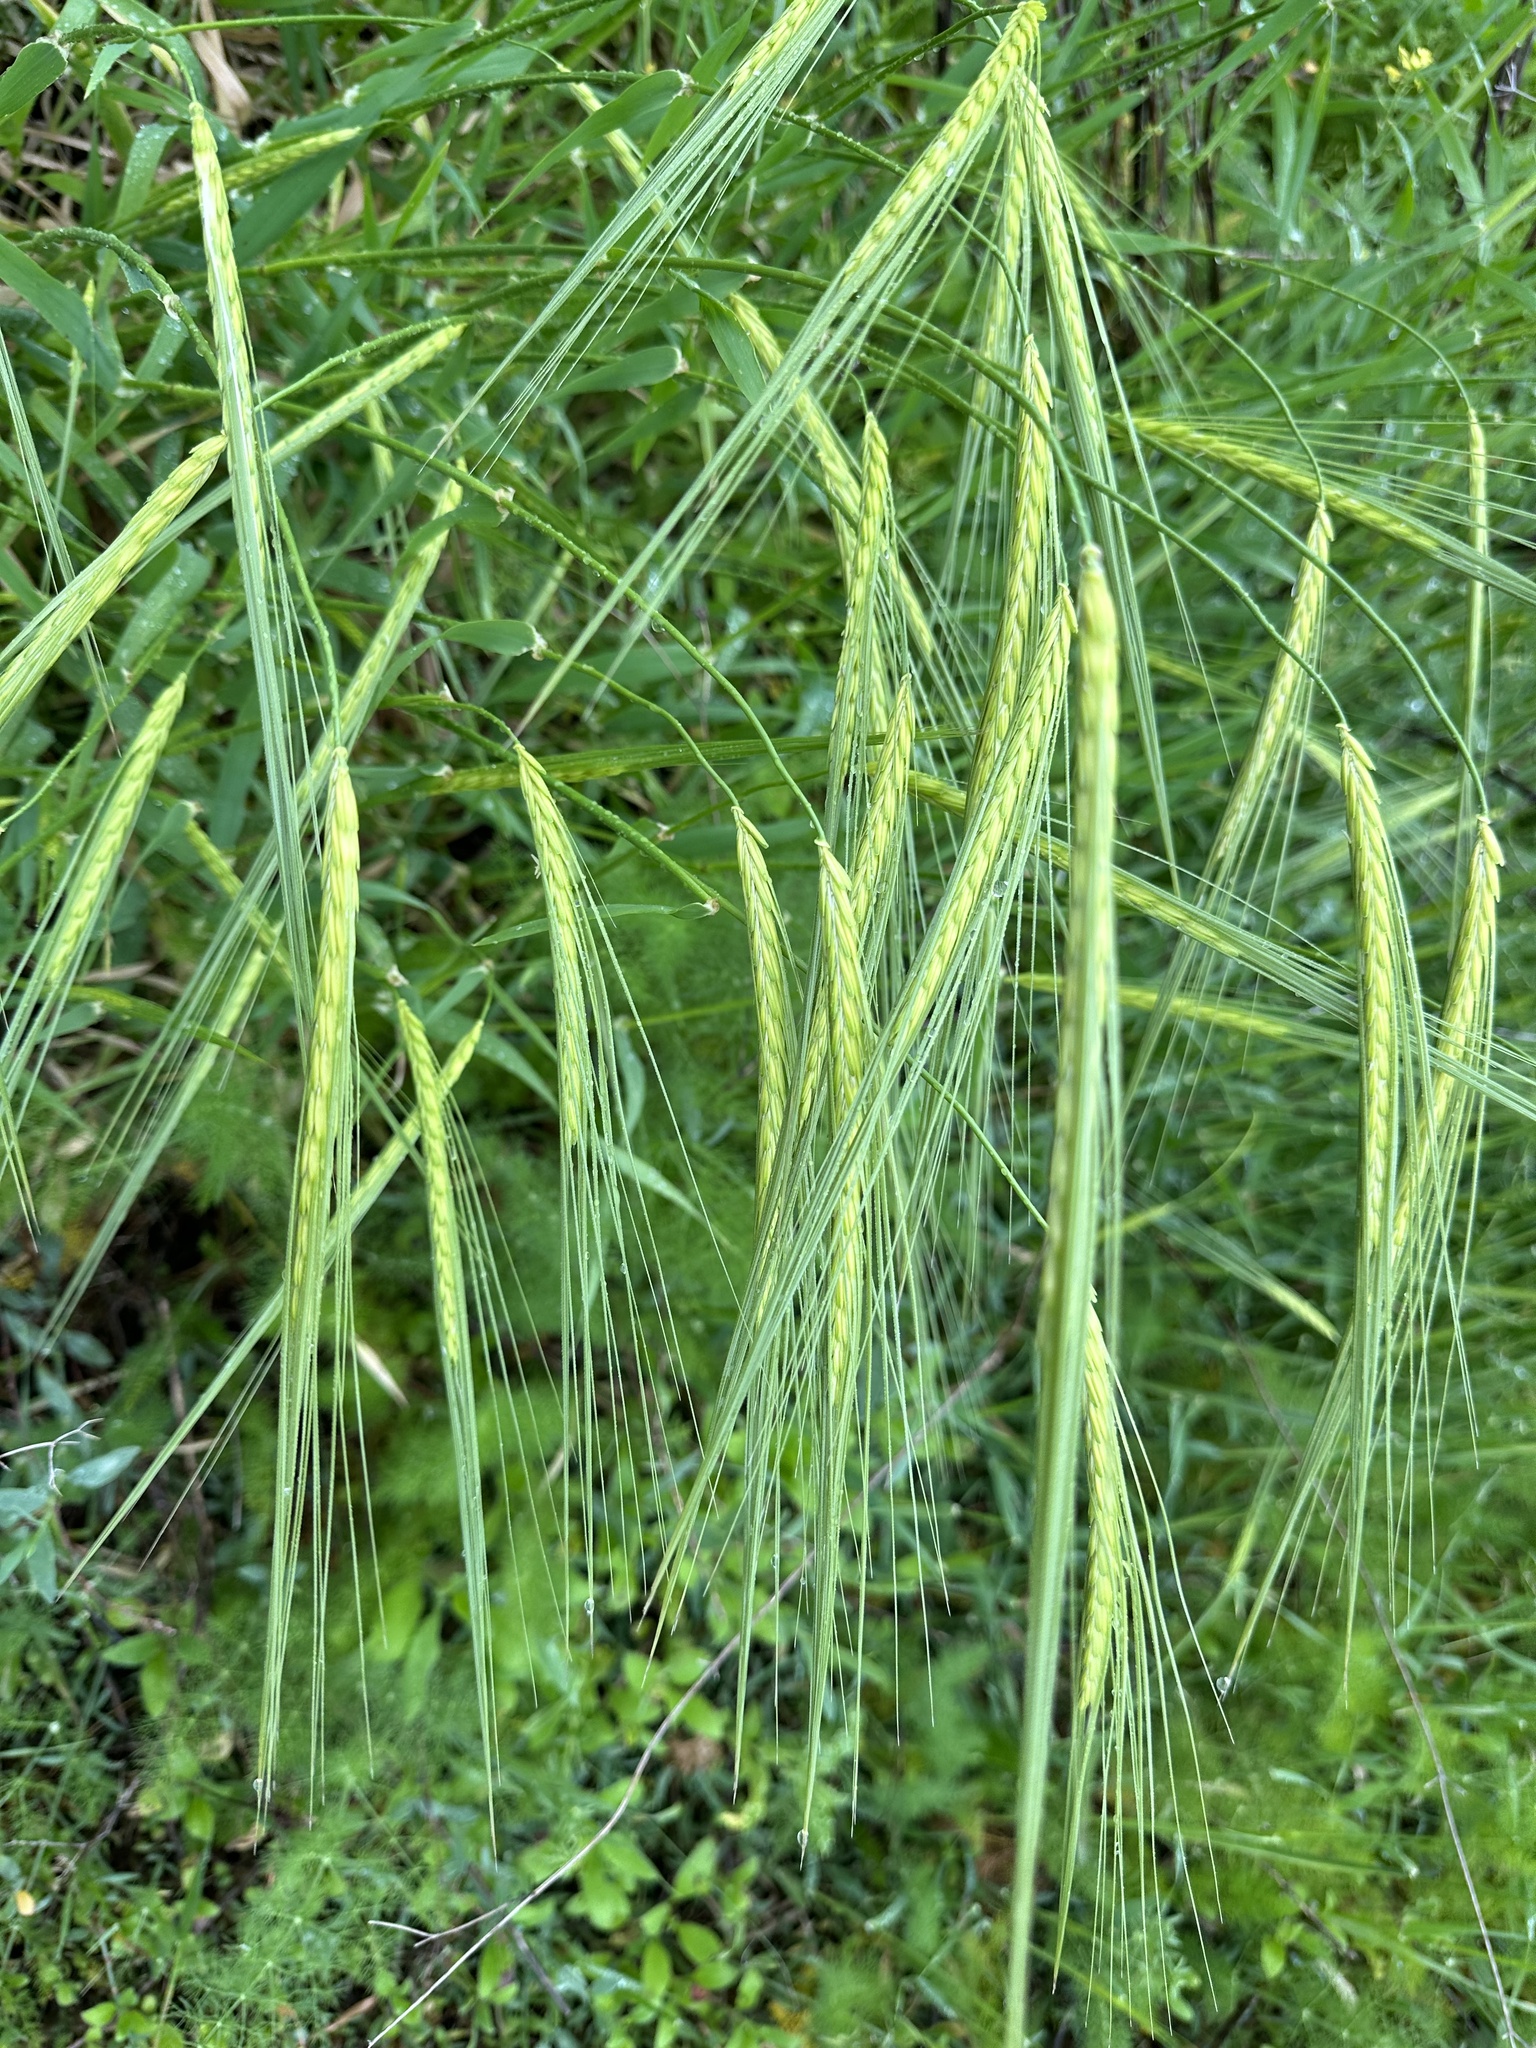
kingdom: Plantae
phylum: Tracheophyta
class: Liliopsida
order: Poales
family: Poaceae
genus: Hordeum
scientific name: Hordeum spontaneum
